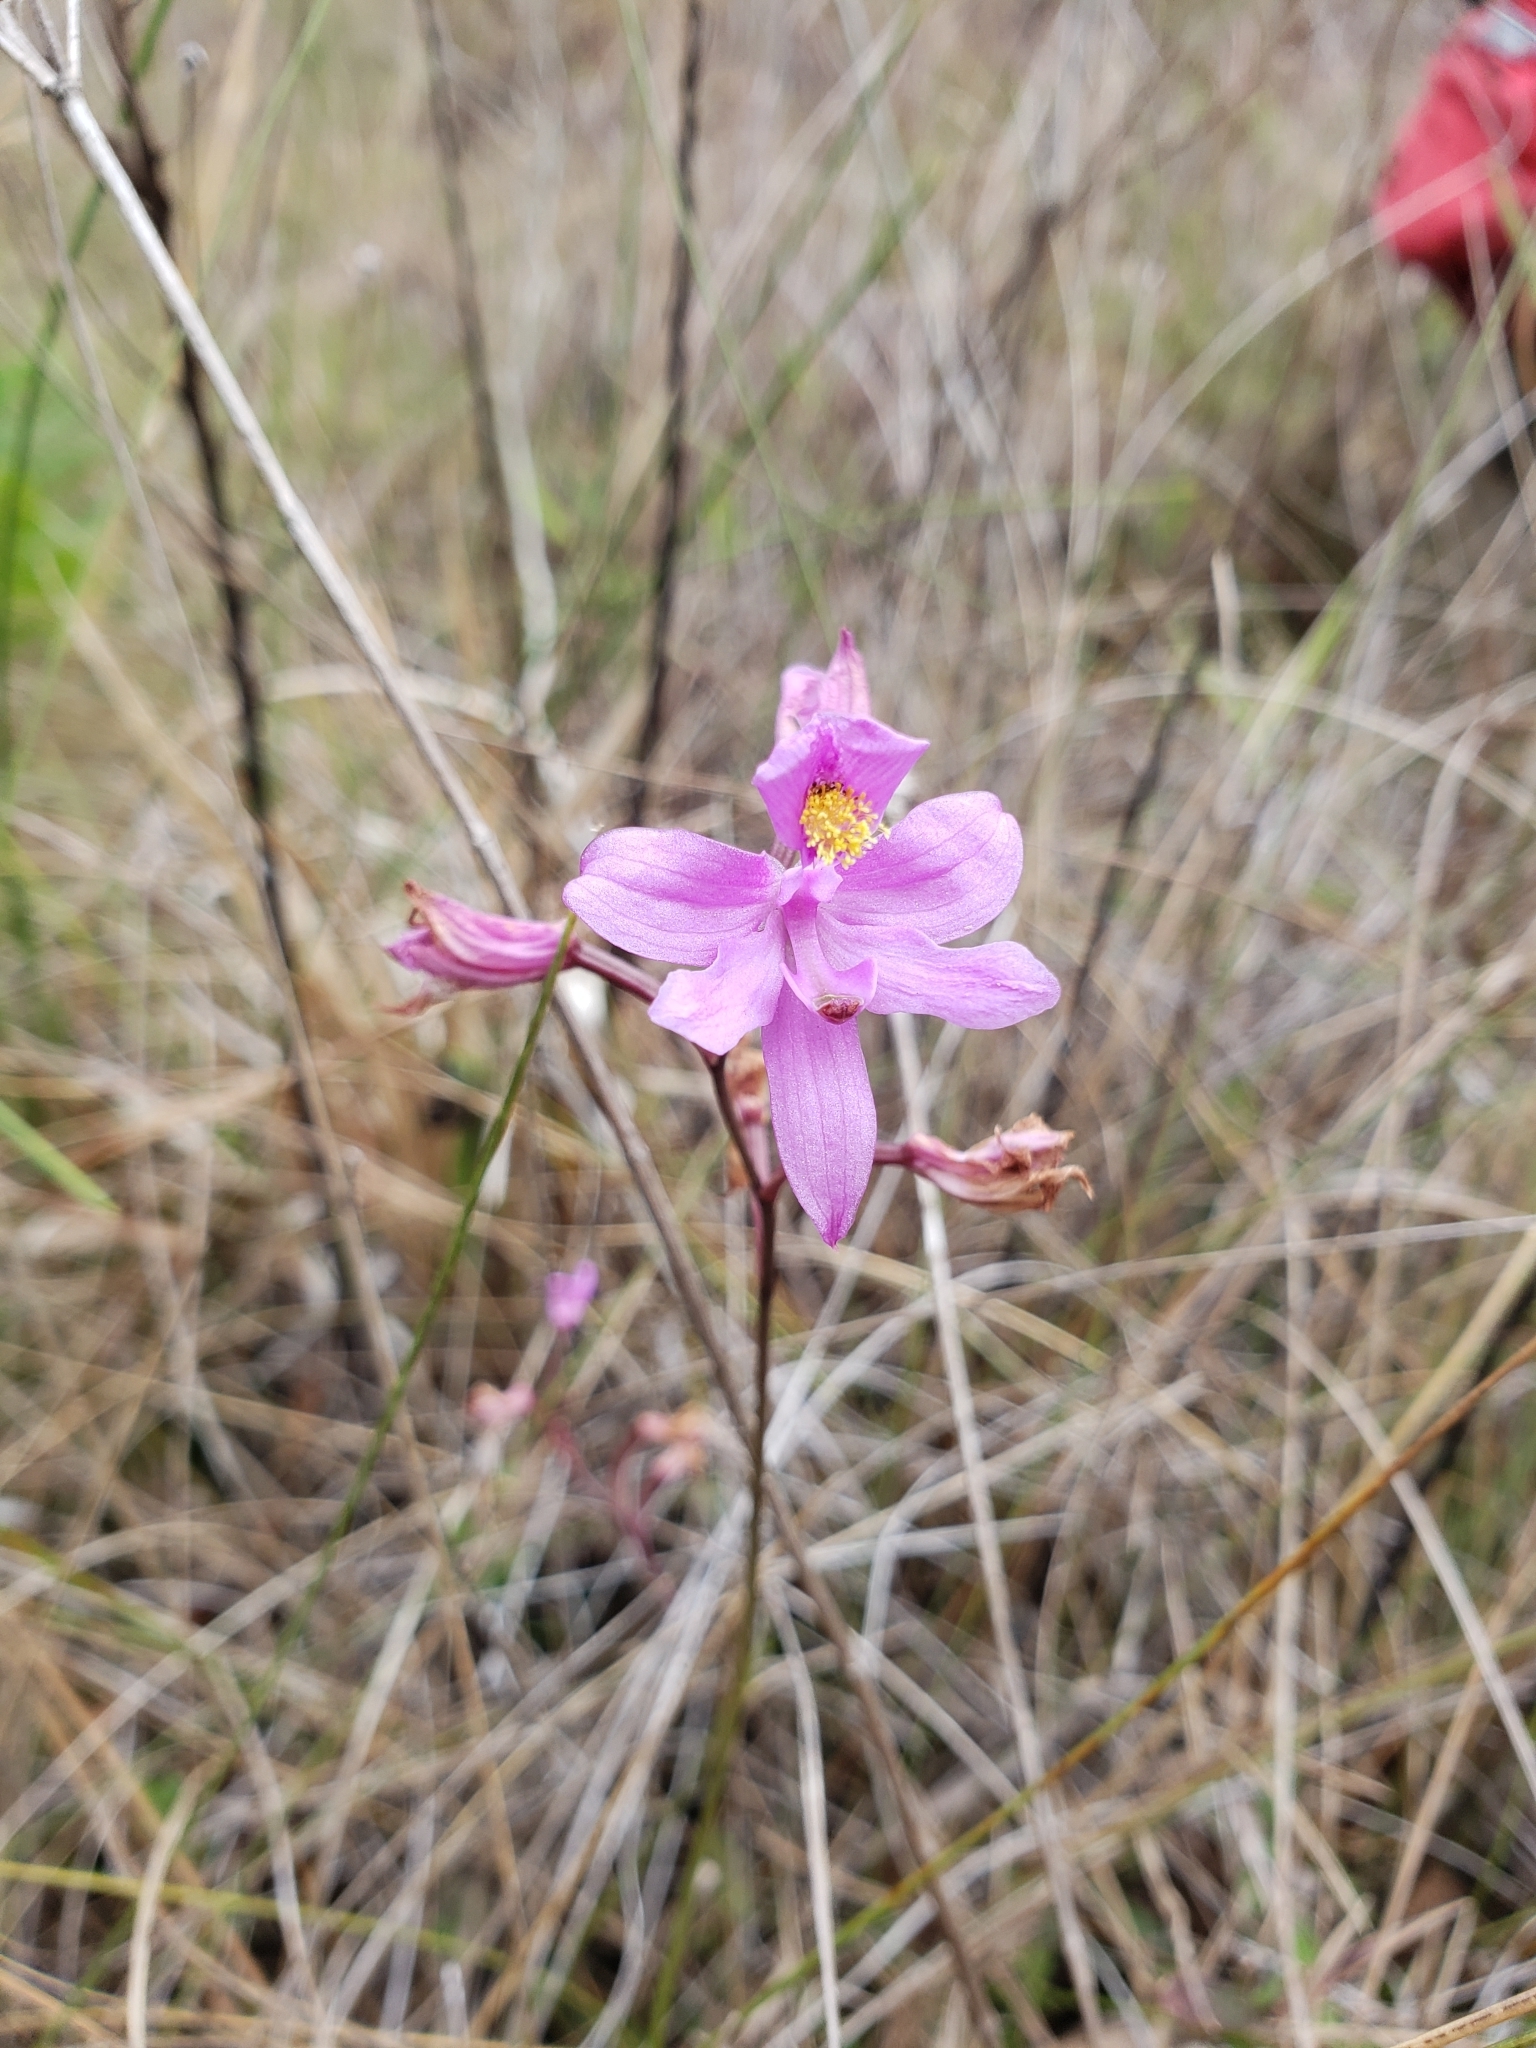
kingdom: Plantae
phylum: Tracheophyta
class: Liliopsida
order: Asparagales
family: Orchidaceae
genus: Calopogon
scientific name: Calopogon barbatus
